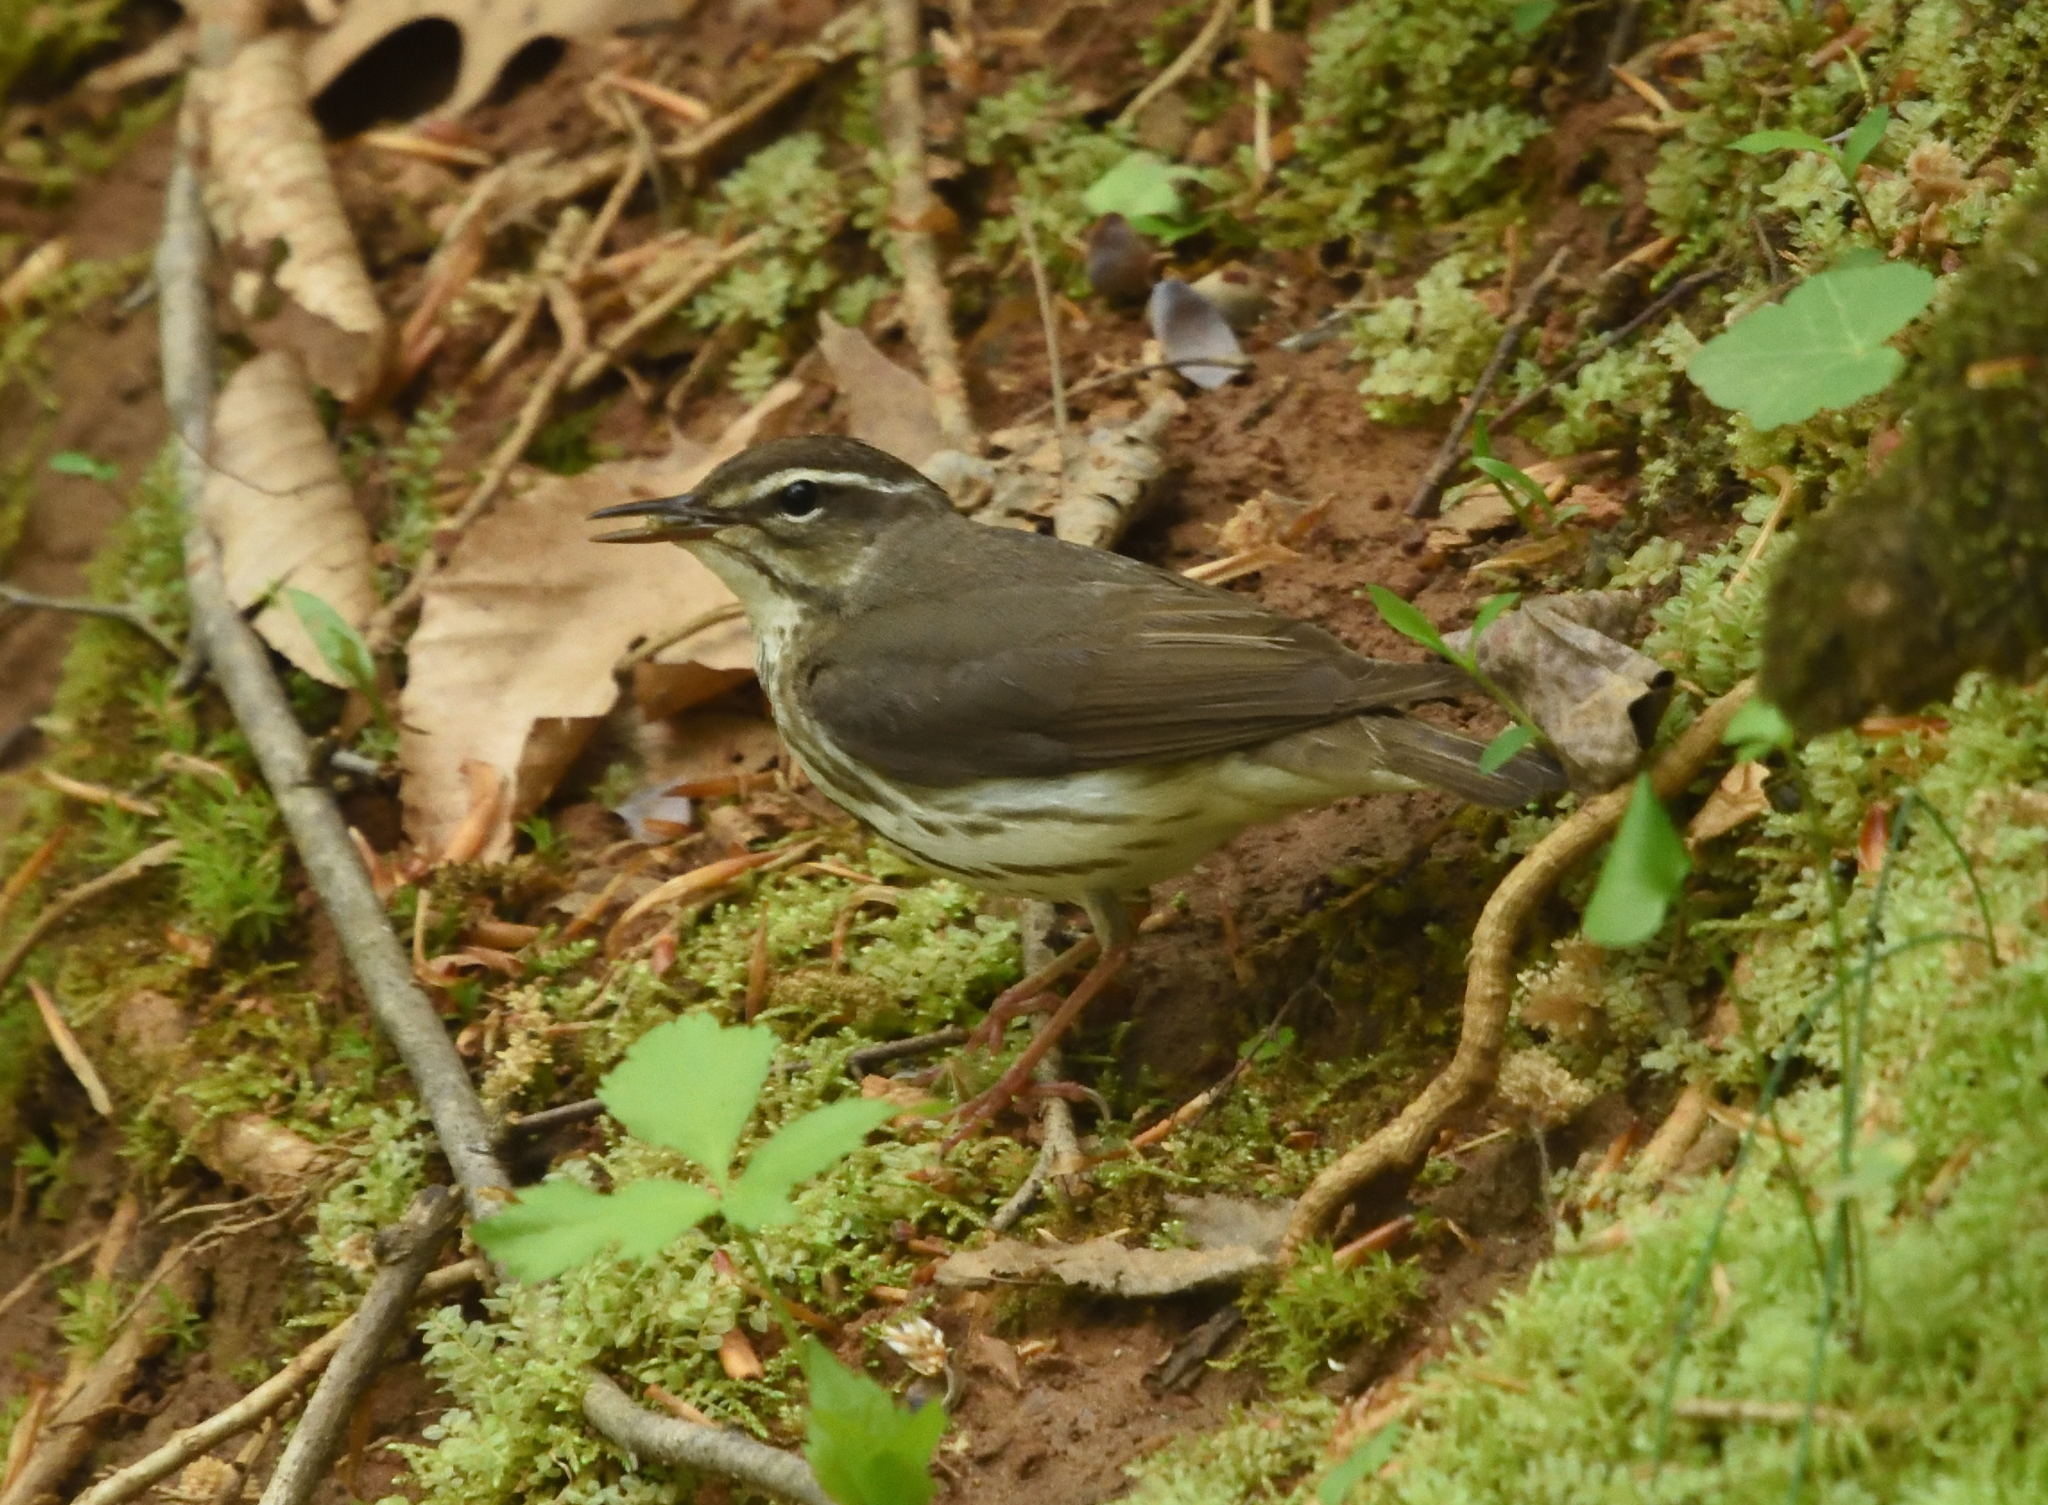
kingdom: Animalia
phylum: Chordata
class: Aves
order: Passeriformes
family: Parulidae
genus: Parkesia
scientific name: Parkesia motacilla
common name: Louisiana waterthrush
